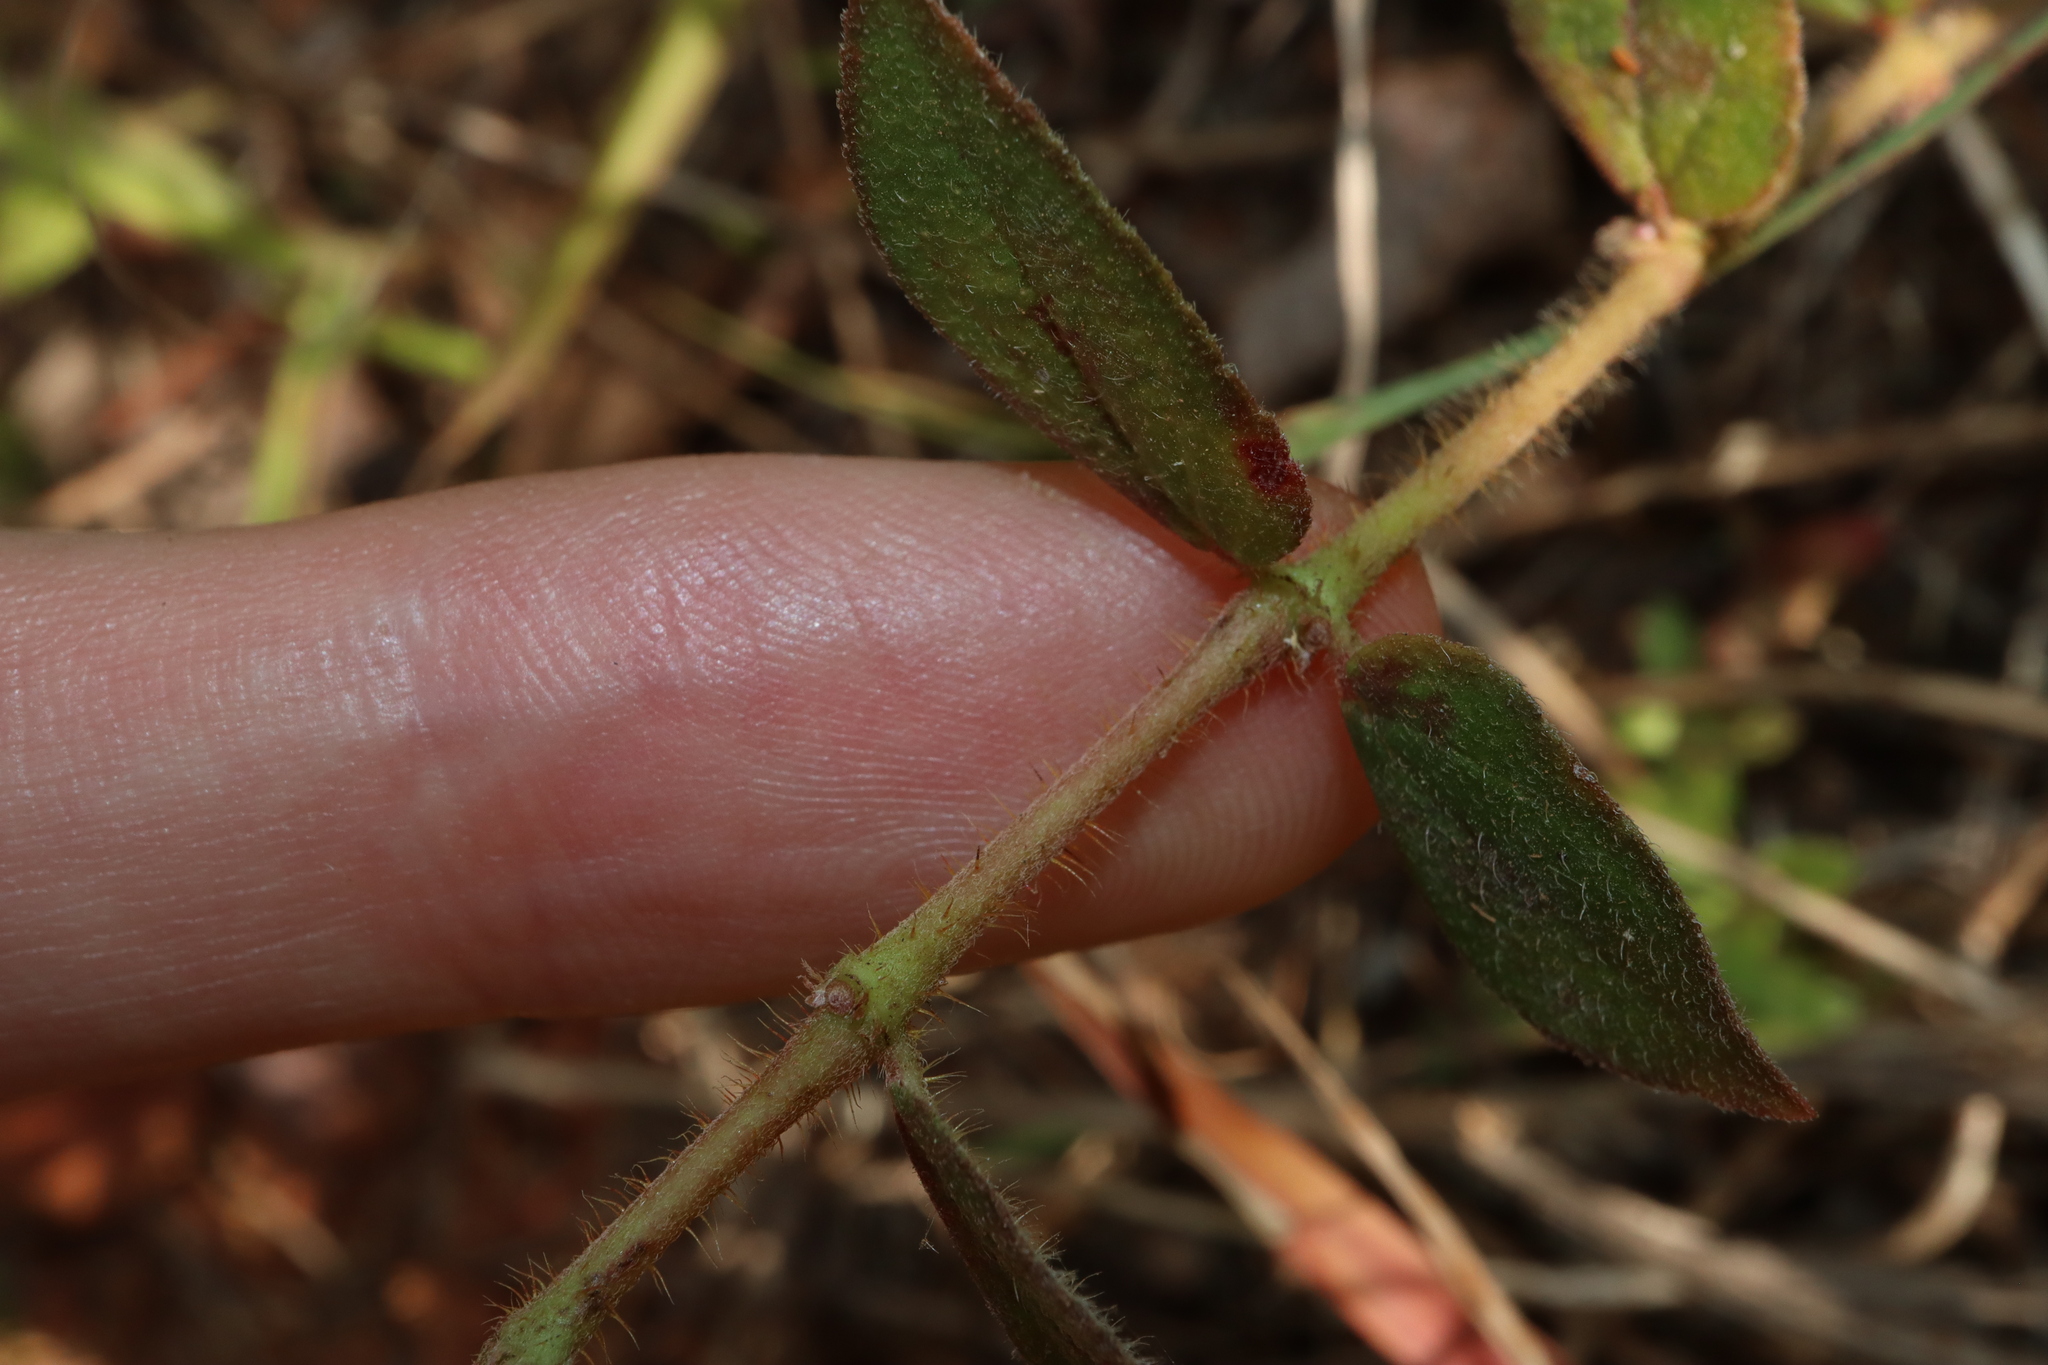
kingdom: Plantae
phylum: Tracheophyta
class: Magnoliopsida
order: Malpighiales
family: Euphorbiaceae
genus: Euphorbia
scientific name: Euphorbia hirta
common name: Pillpod sandmat
